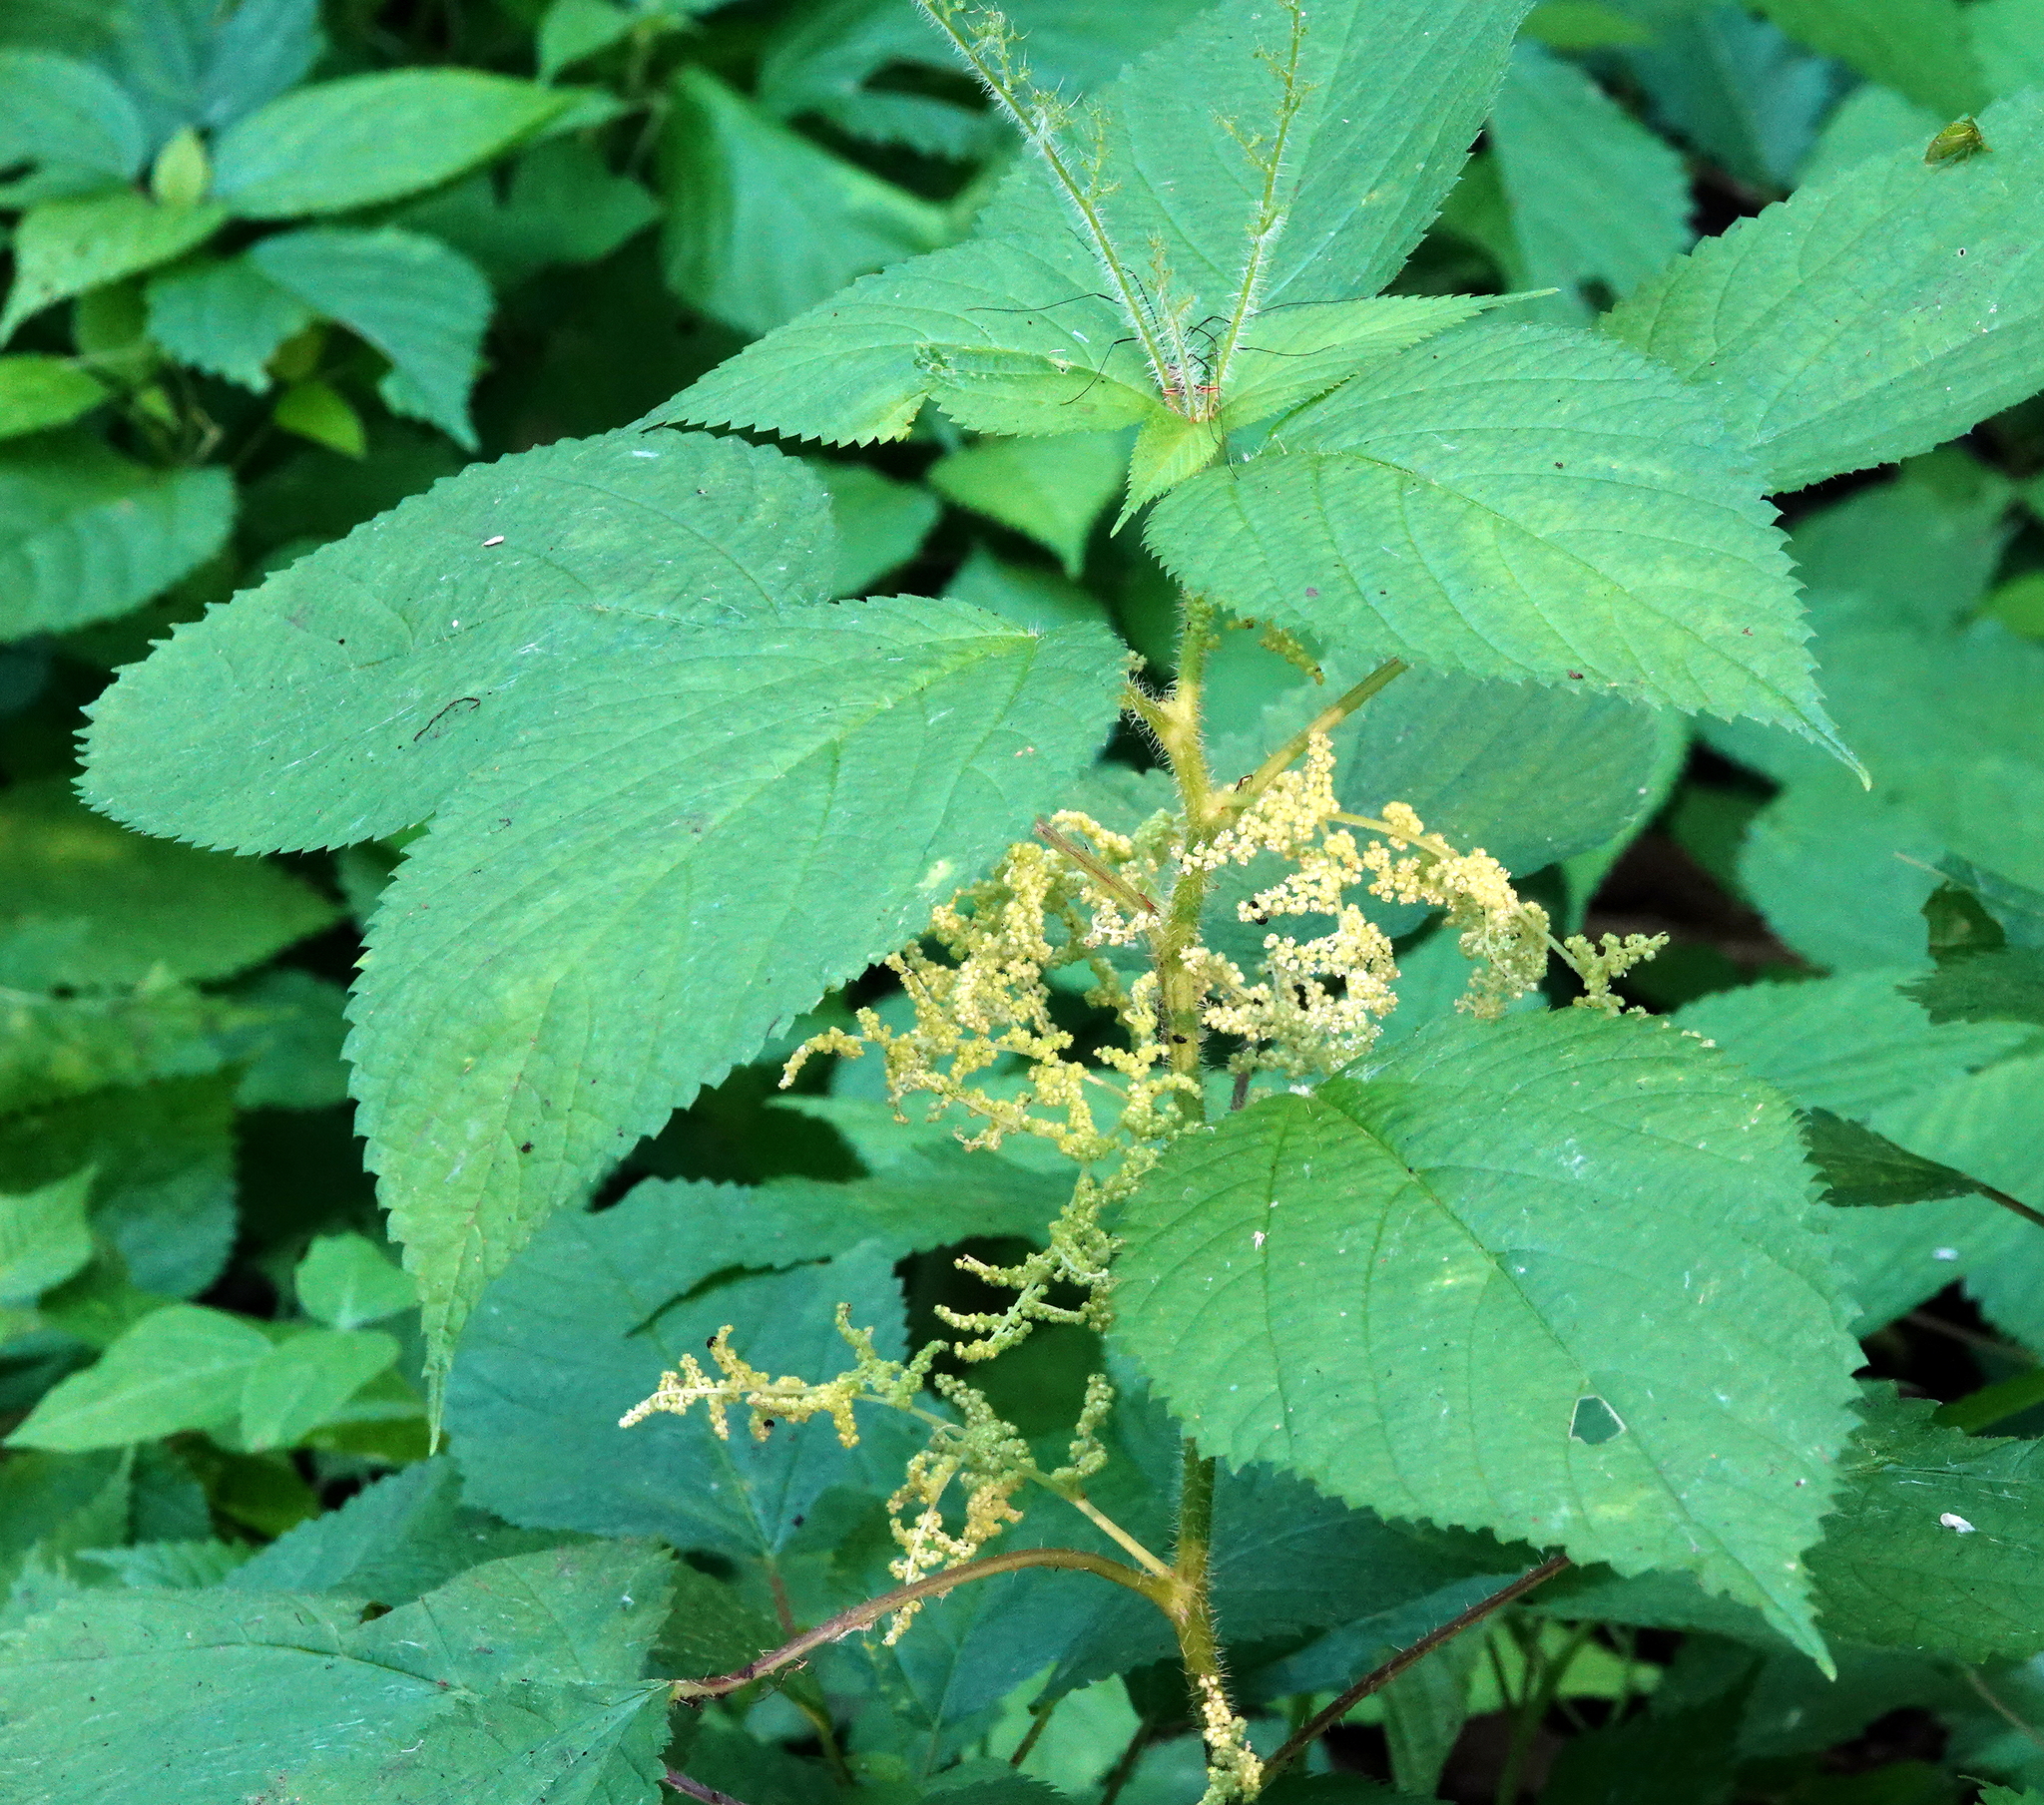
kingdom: Plantae
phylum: Tracheophyta
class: Magnoliopsida
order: Rosales
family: Urticaceae
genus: Laportea
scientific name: Laportea canadensis
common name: Canada nettle
